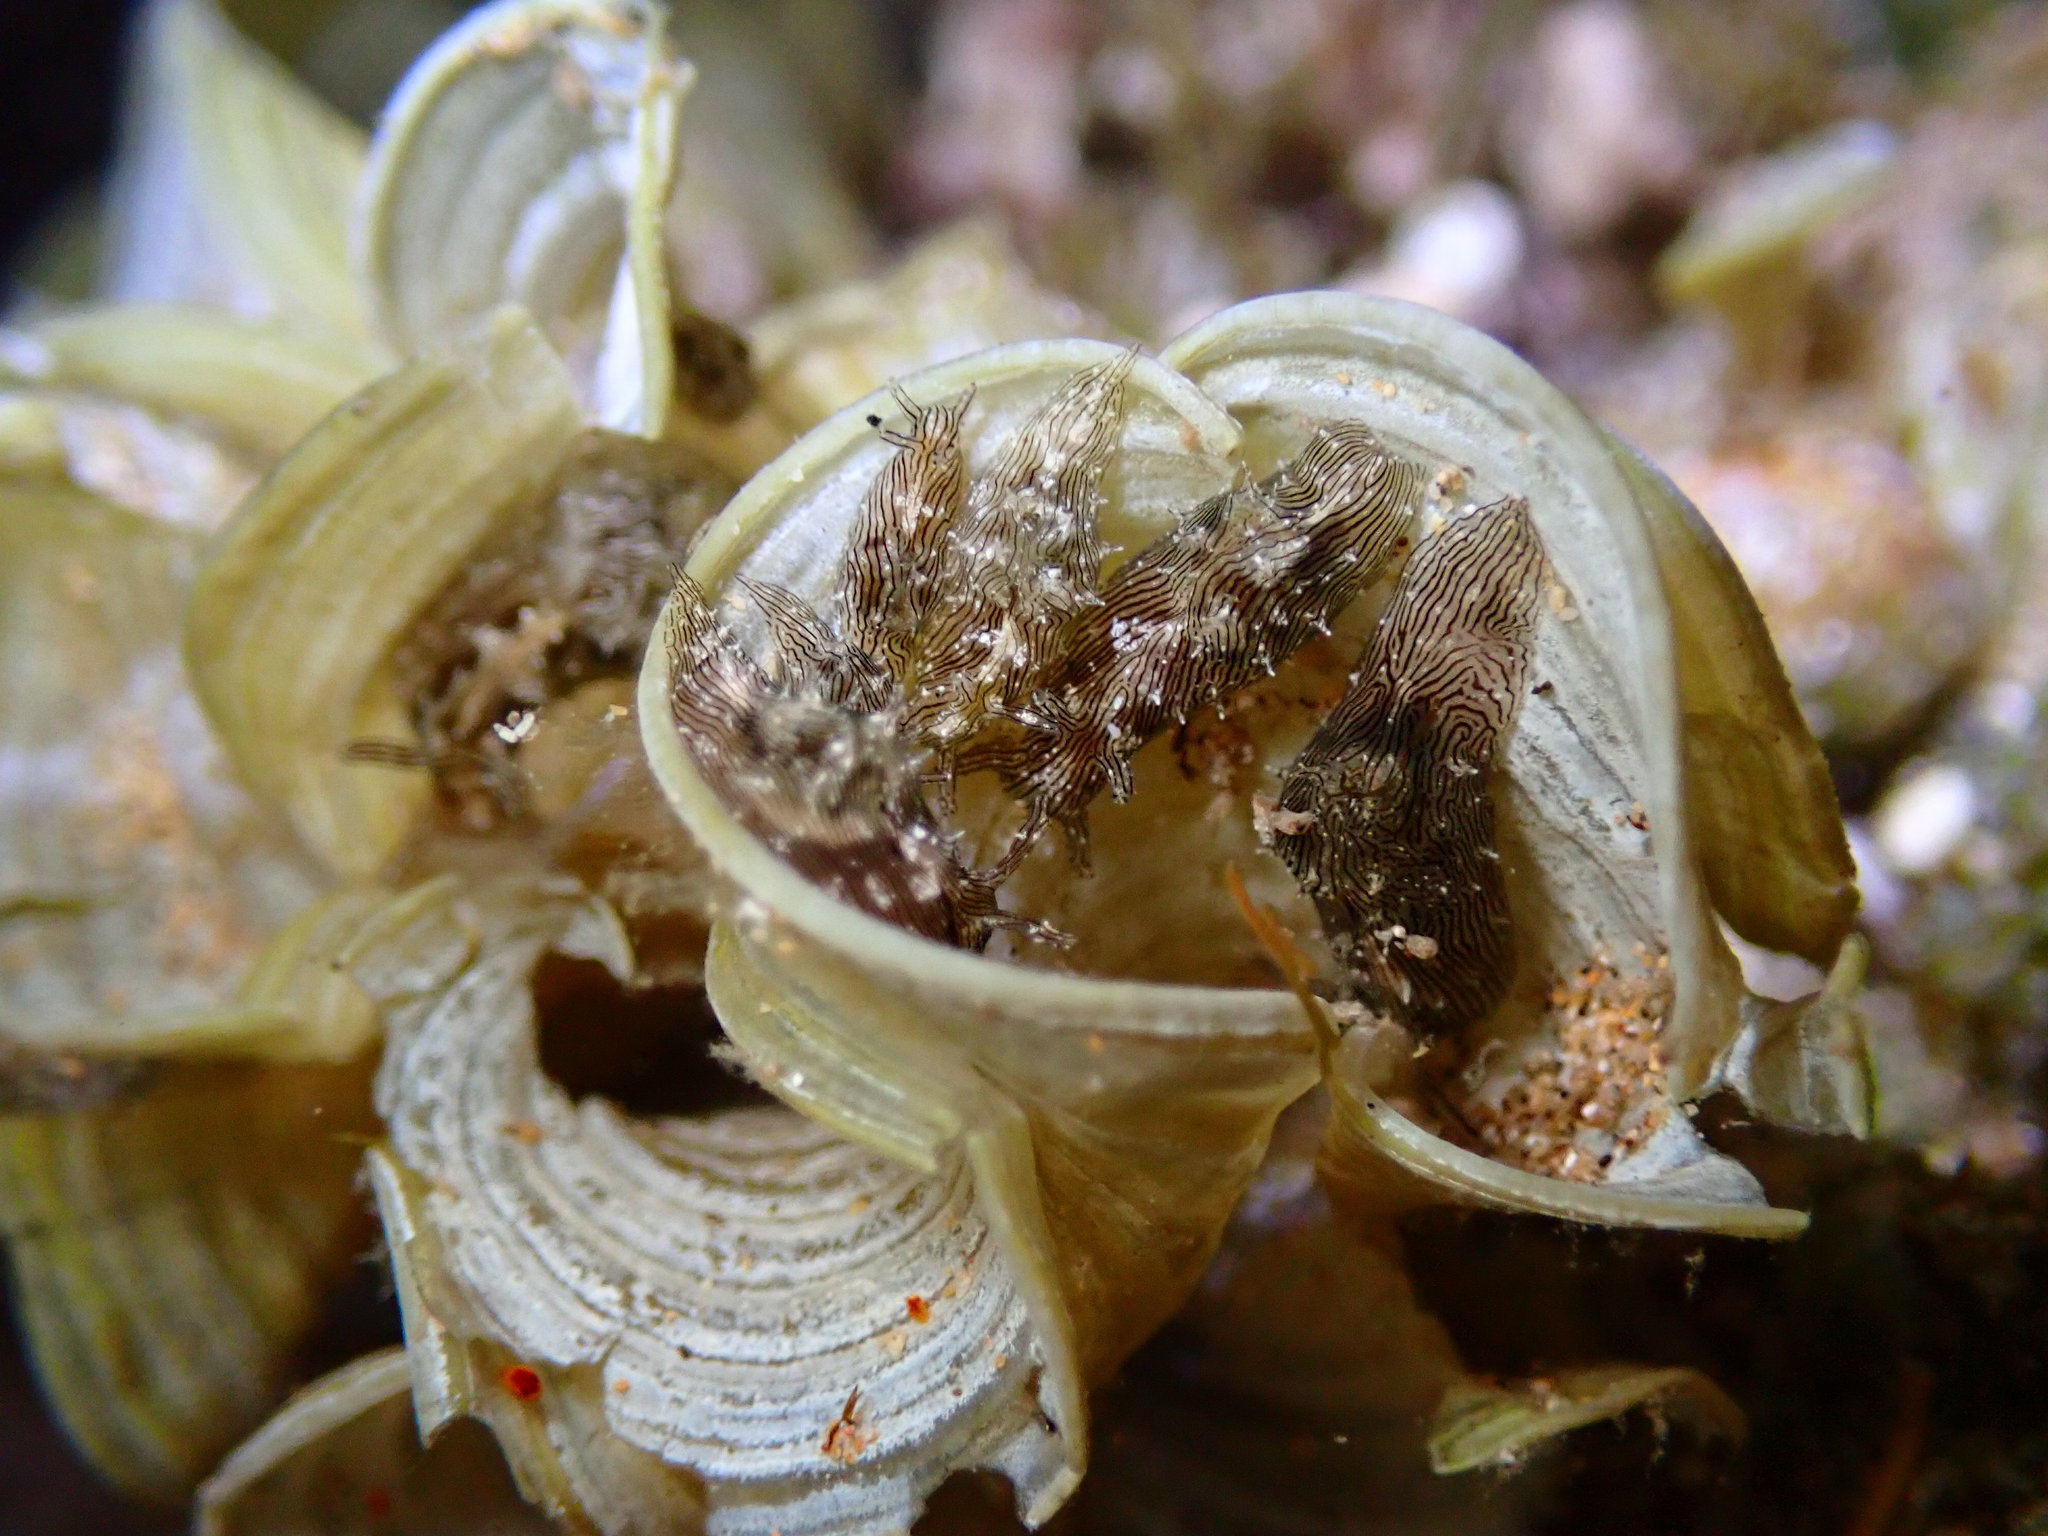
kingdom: Animalia
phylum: Mollusca
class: Gastropoda
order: Aplysiida
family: Aplysiidae
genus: Stylocheilus
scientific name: Stylocheilus striatus
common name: Striated seahare
